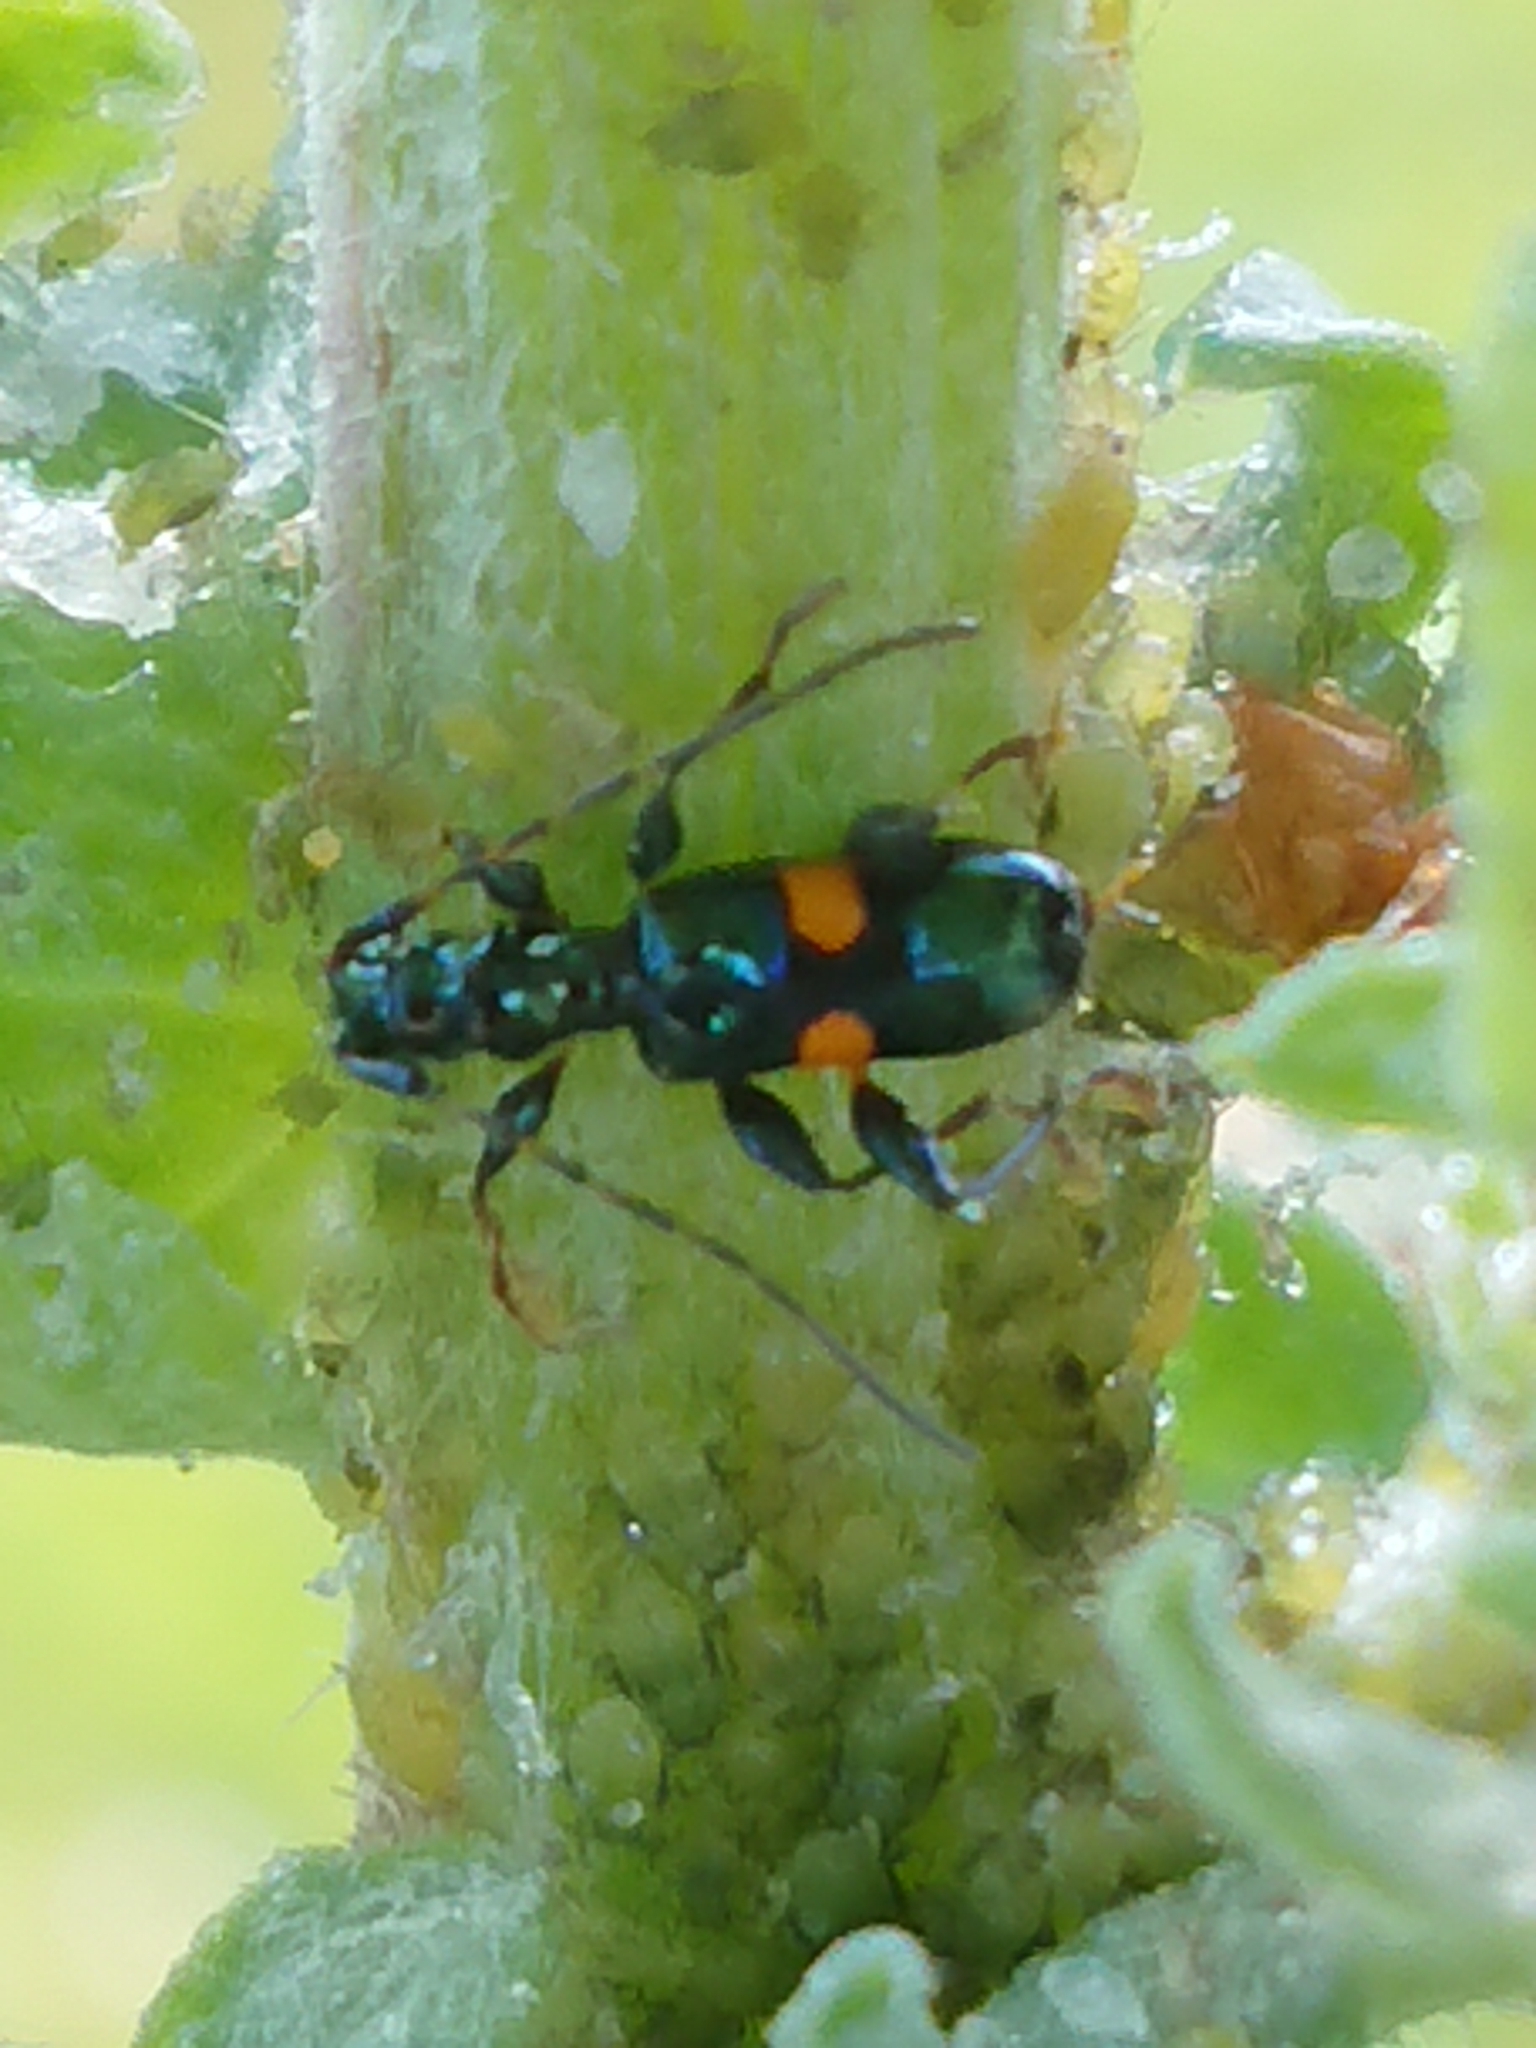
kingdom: Animalia
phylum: Arthropoda
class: Insecta
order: Coleoptera
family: Cerambycidae
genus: Zorion
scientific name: Zorion guttigerum
